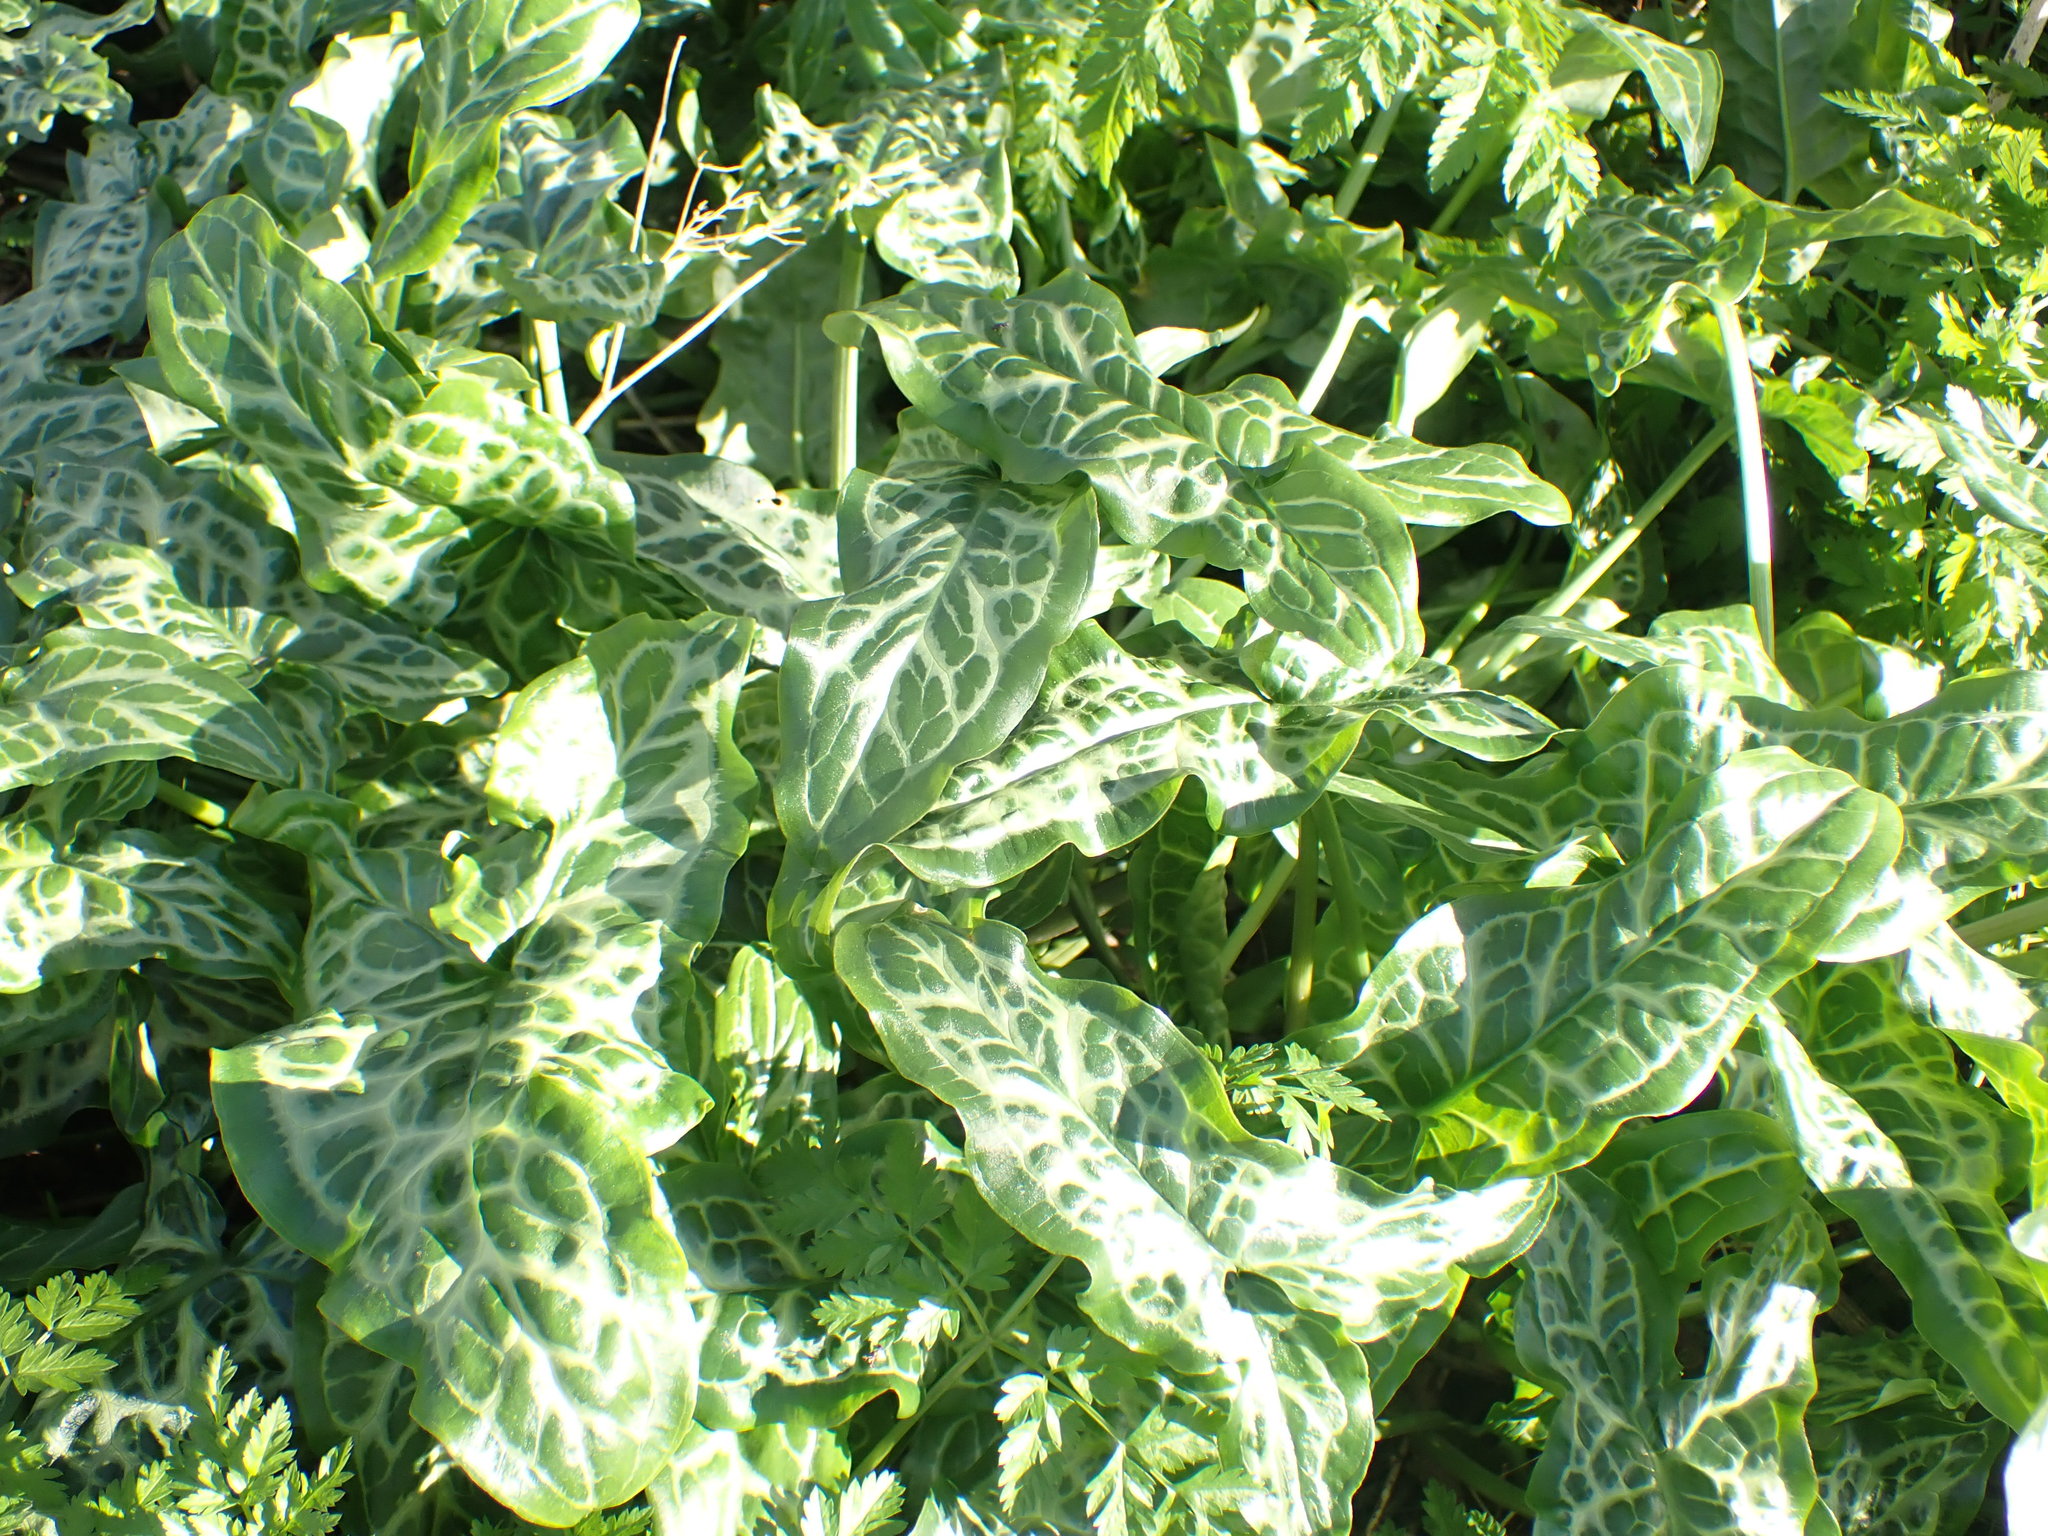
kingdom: Plantae
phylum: Tracheophyta
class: Liliopsida
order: Alismatales
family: Araceae
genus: Arum
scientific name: Arum italicum
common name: Italian lords-and-ladies
